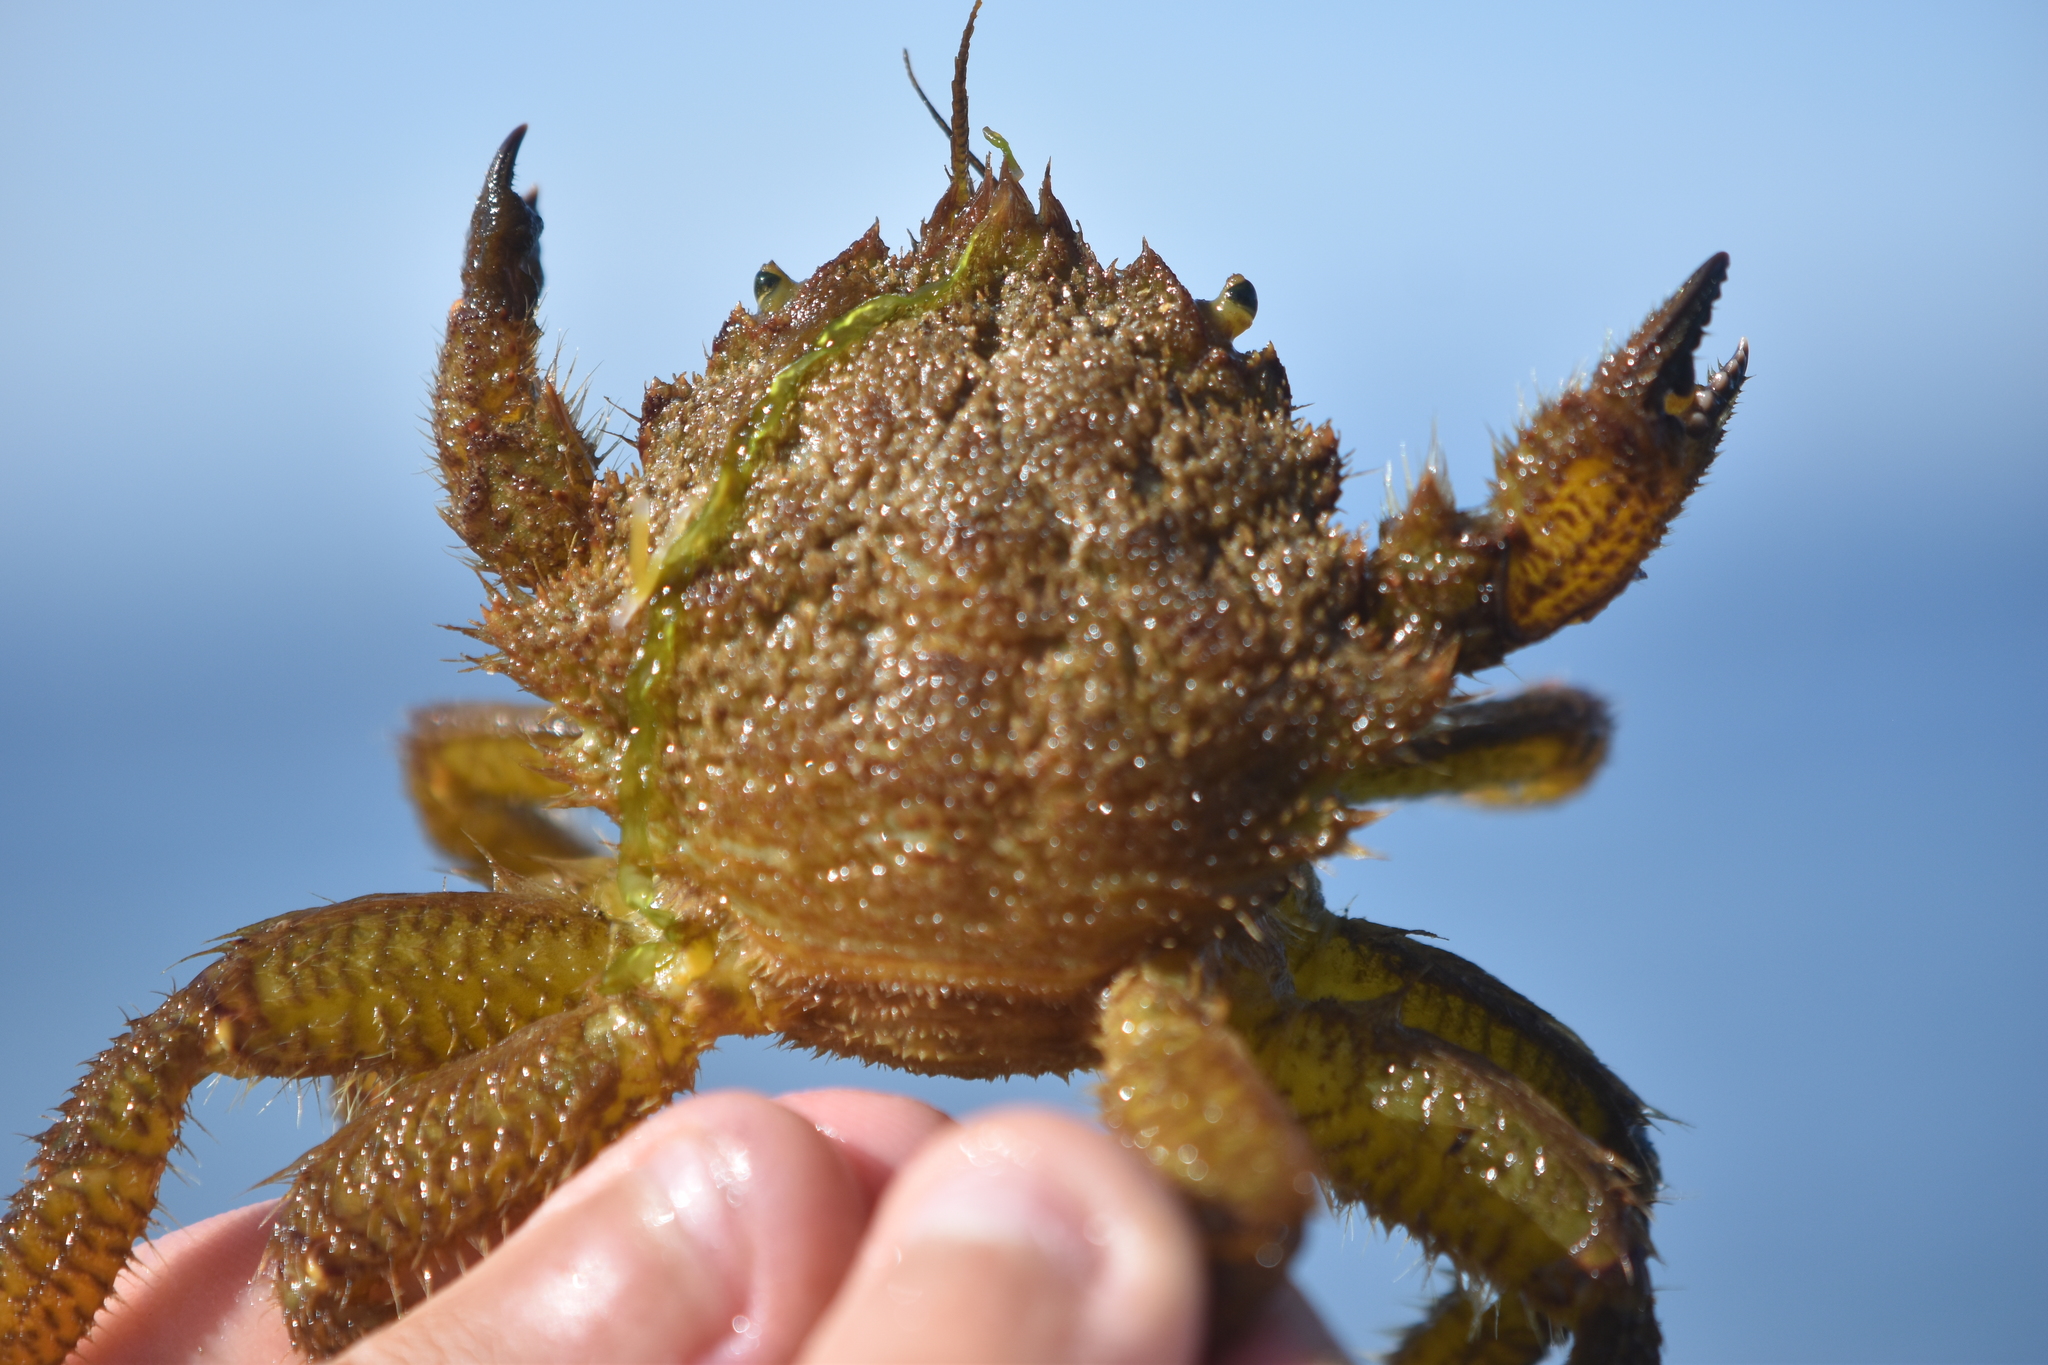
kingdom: Animalia
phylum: Arthropoda
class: Malacostraca
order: Decapoda
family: Cheiragonidae
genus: Telmessus
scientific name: Telmessus cheiragonus
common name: Helmet crab
